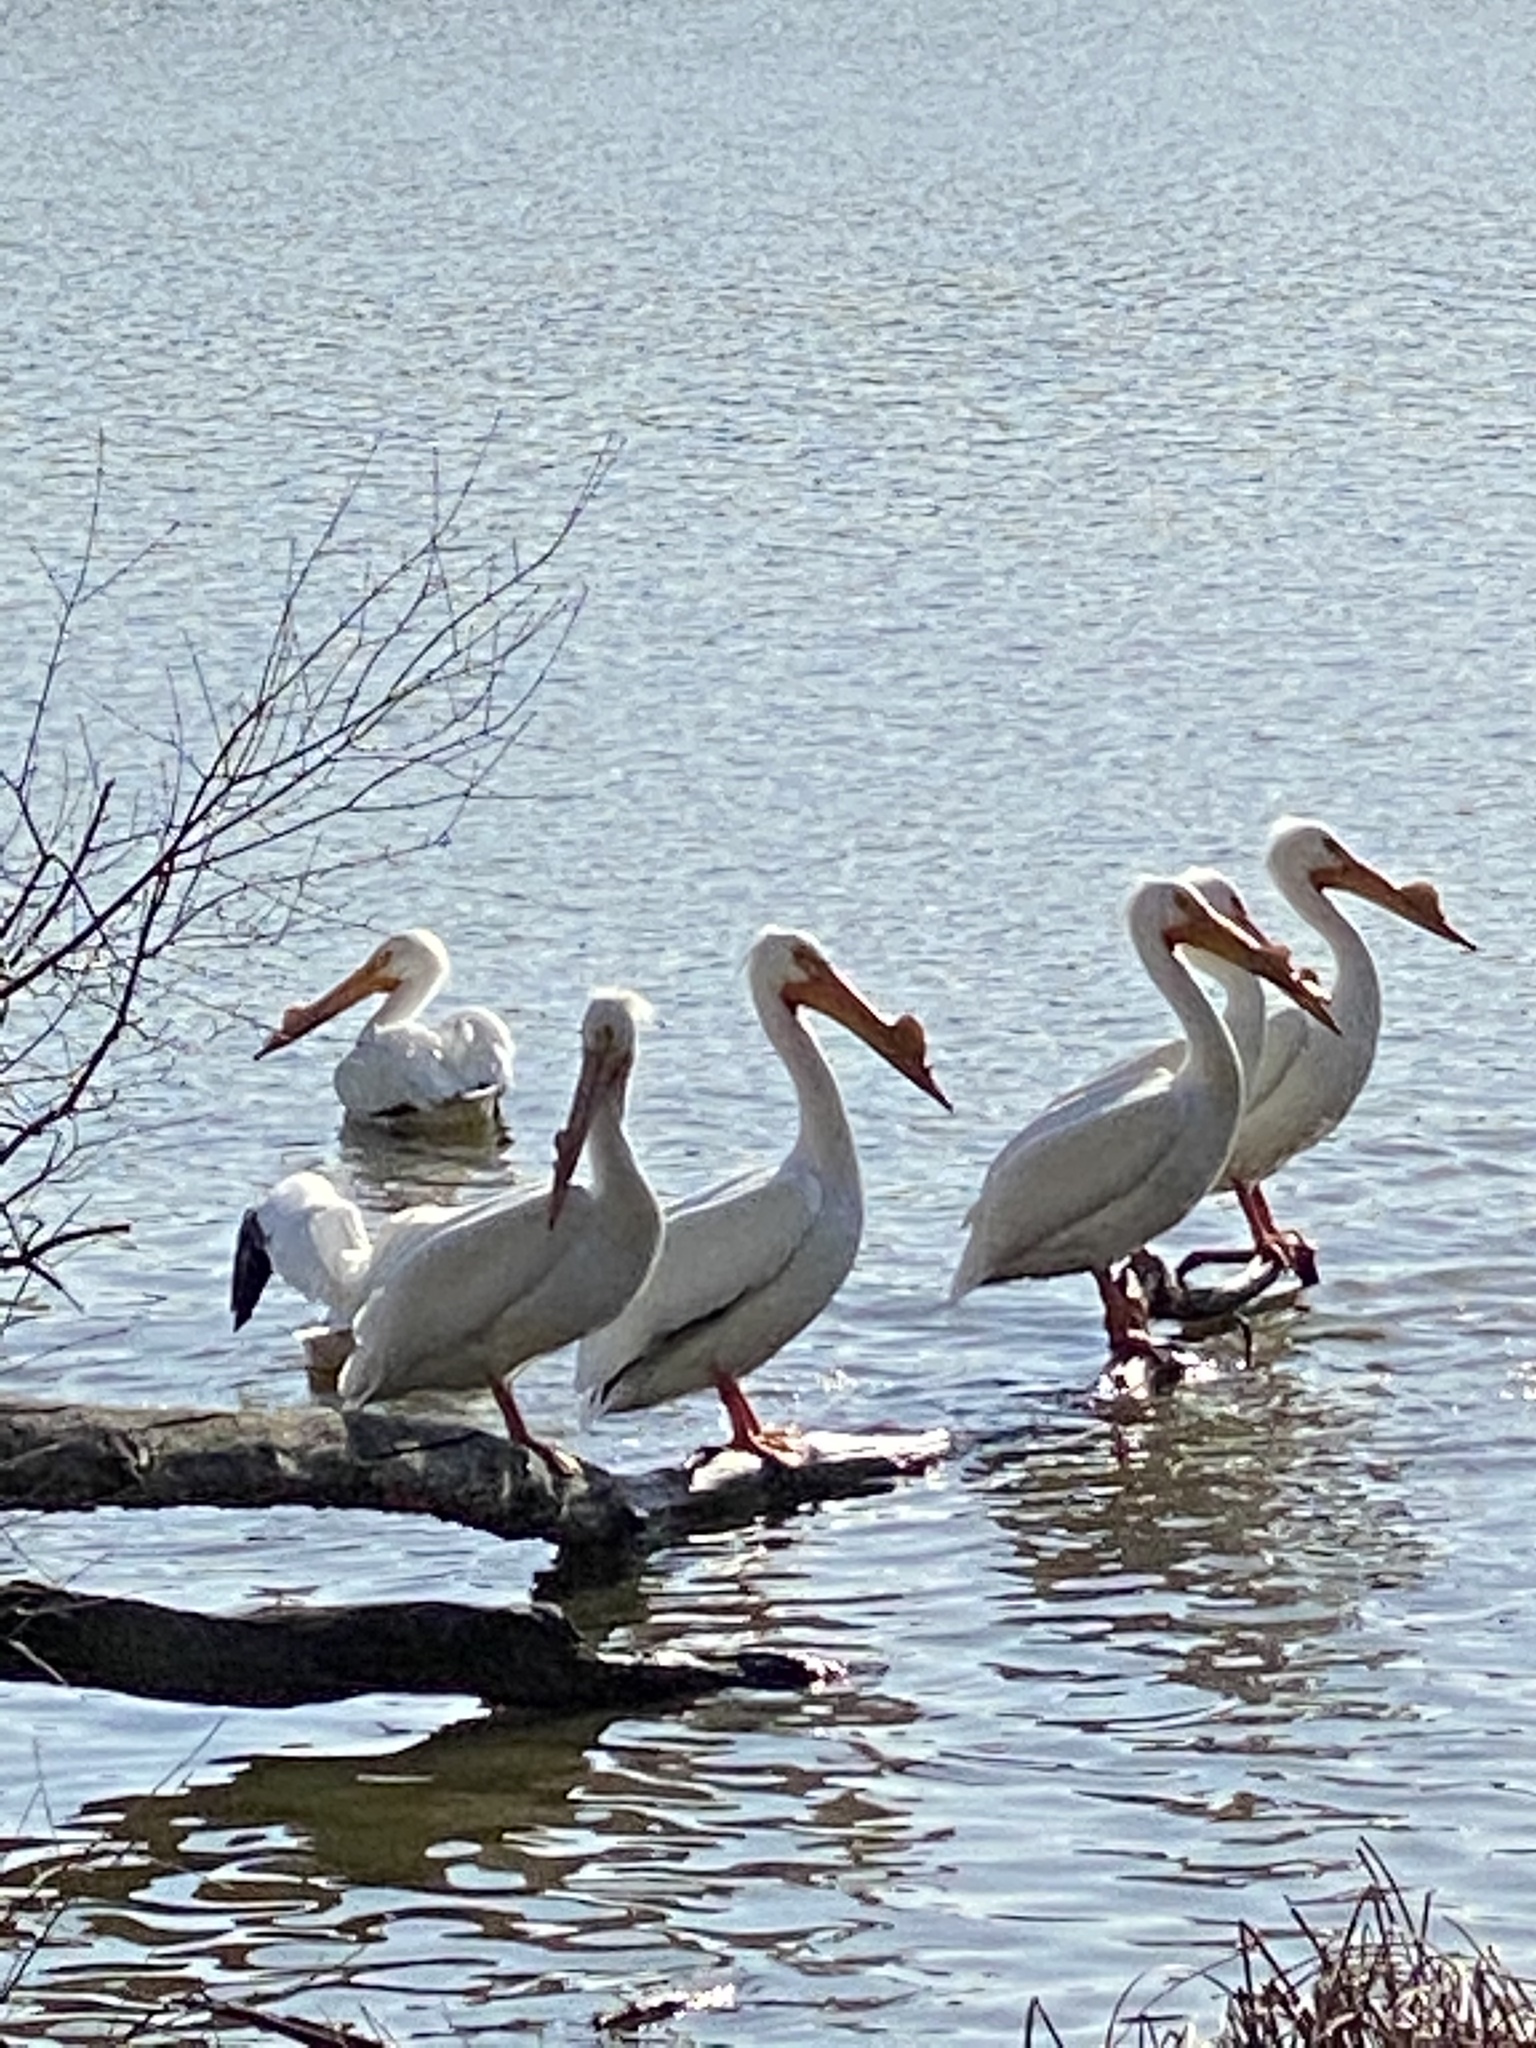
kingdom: Animalia
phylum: Chordata
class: Aves
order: Pelecaniformes
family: Pelecanidae
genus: Pelecanus
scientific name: Pelecanus erythrorhynchos
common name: American white pelican
